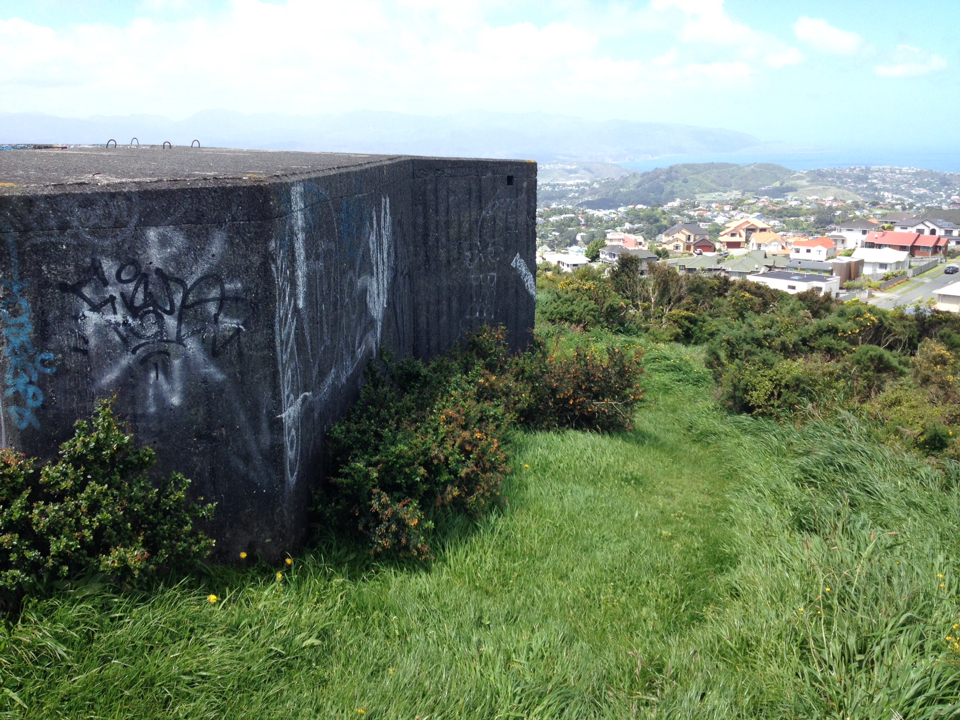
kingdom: Plantae
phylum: Tracheophyta
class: Magnoliopsida
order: Ranunculales
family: Berberidaceae
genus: Berberis
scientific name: Berberis darwinii
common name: Darwin's barberry
